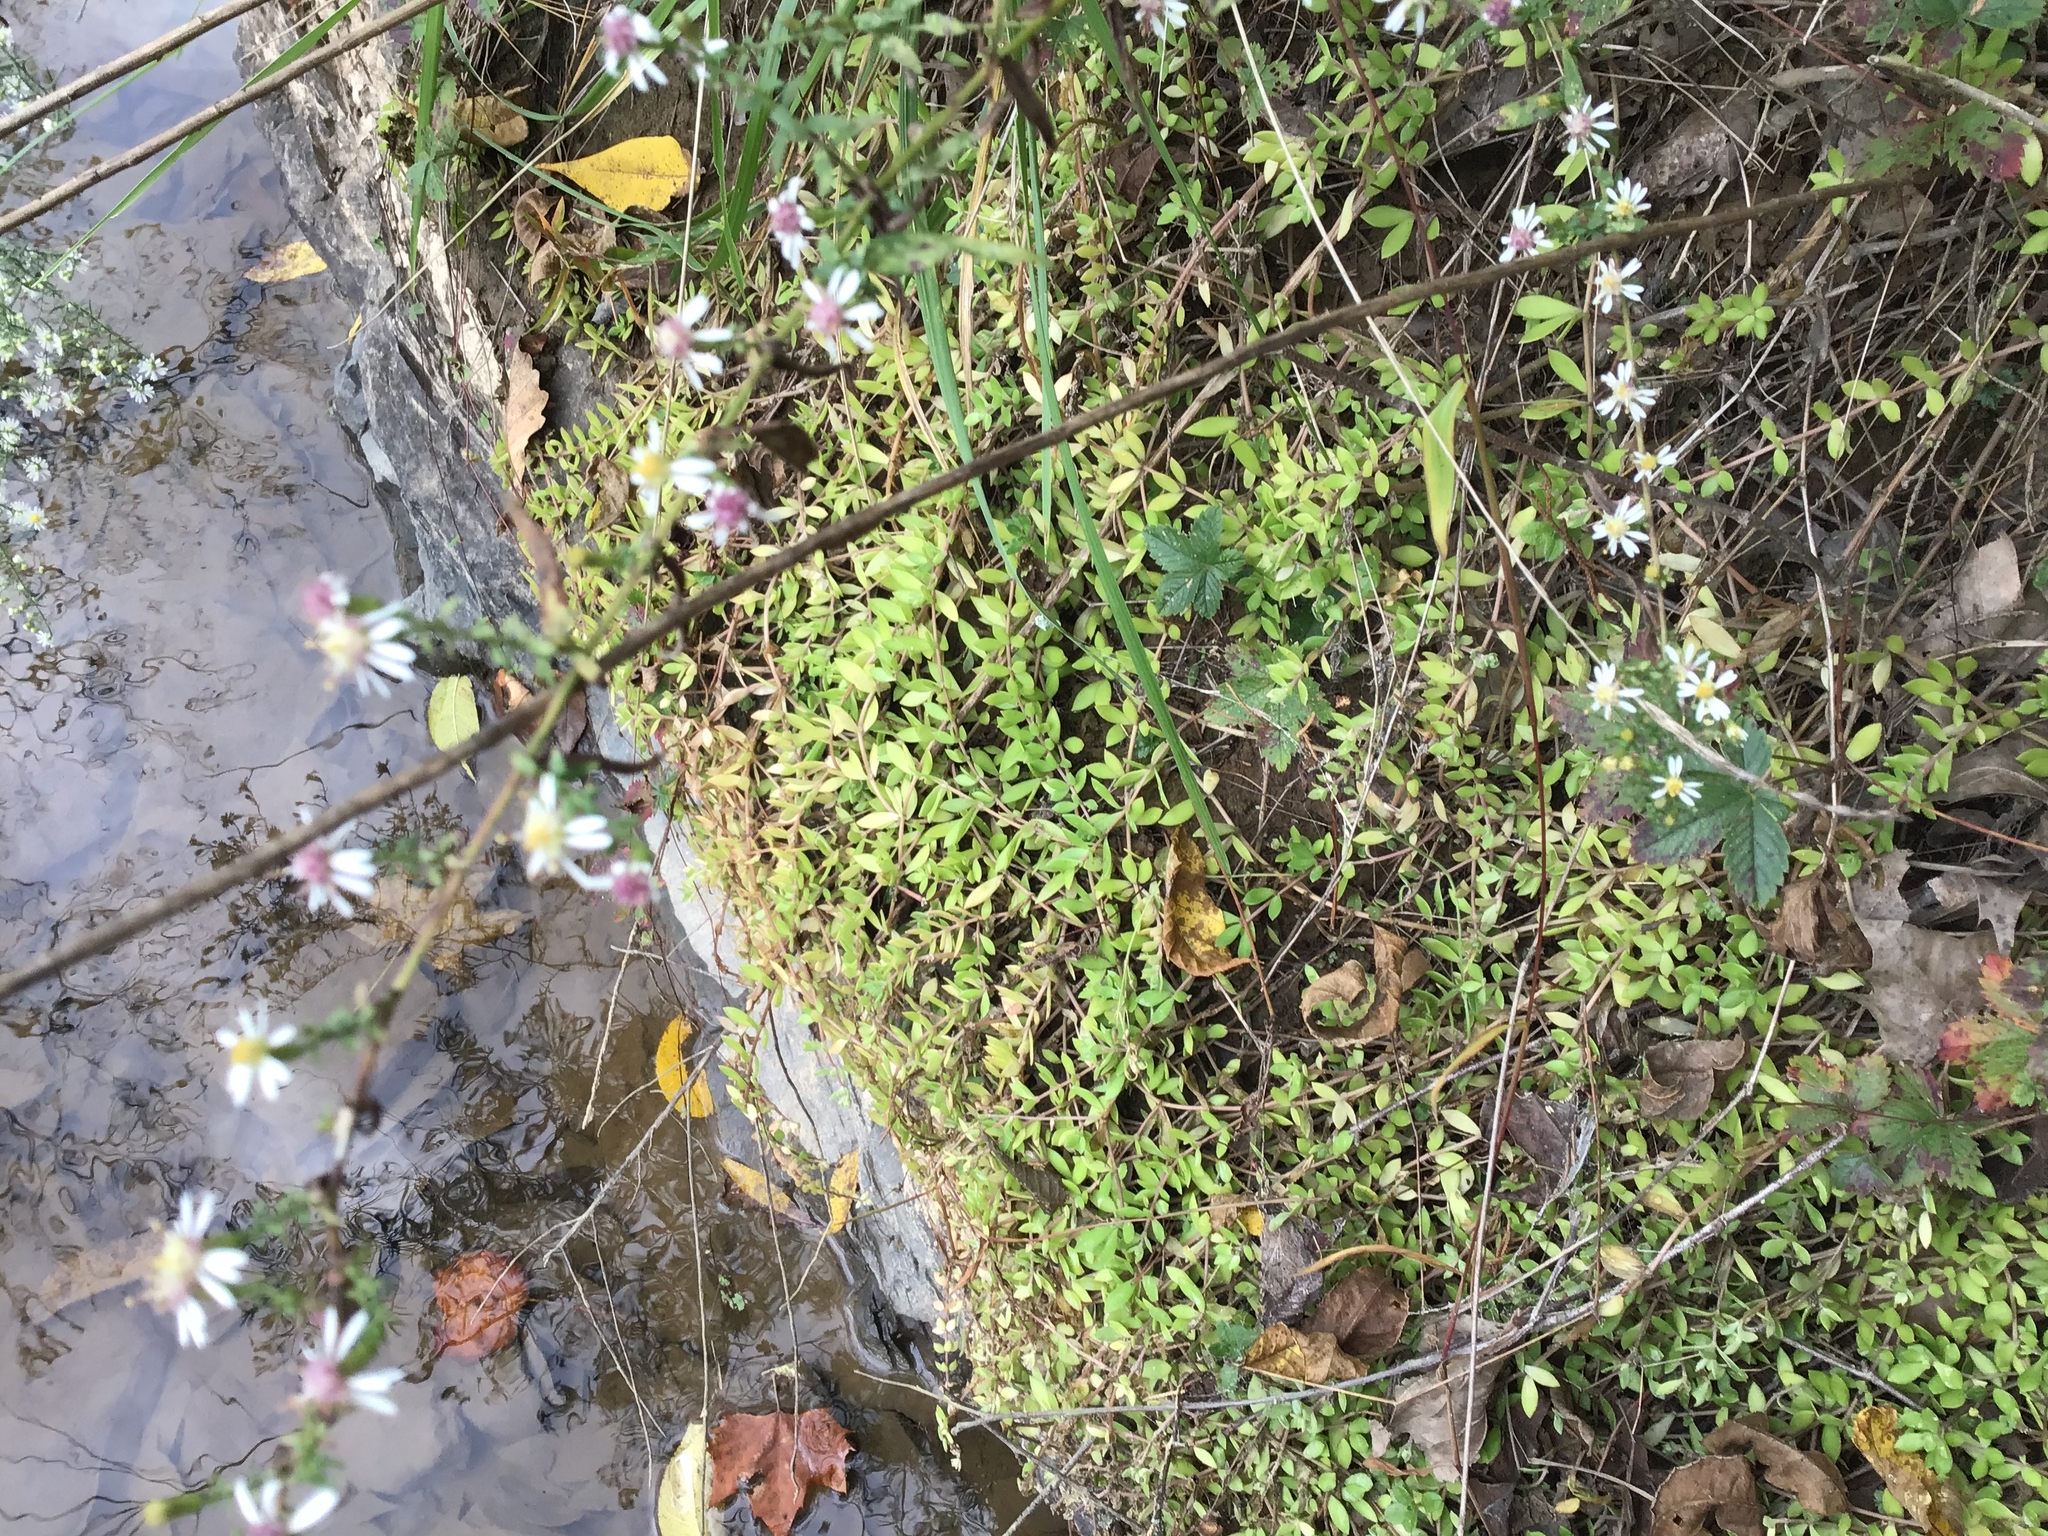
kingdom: Plantae
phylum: Tracheophyta
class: Magnoliopsida
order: Saxifragales
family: Crassulaceae
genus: Sedum
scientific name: Sedum sarmentosum
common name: Stringy stonecrop
